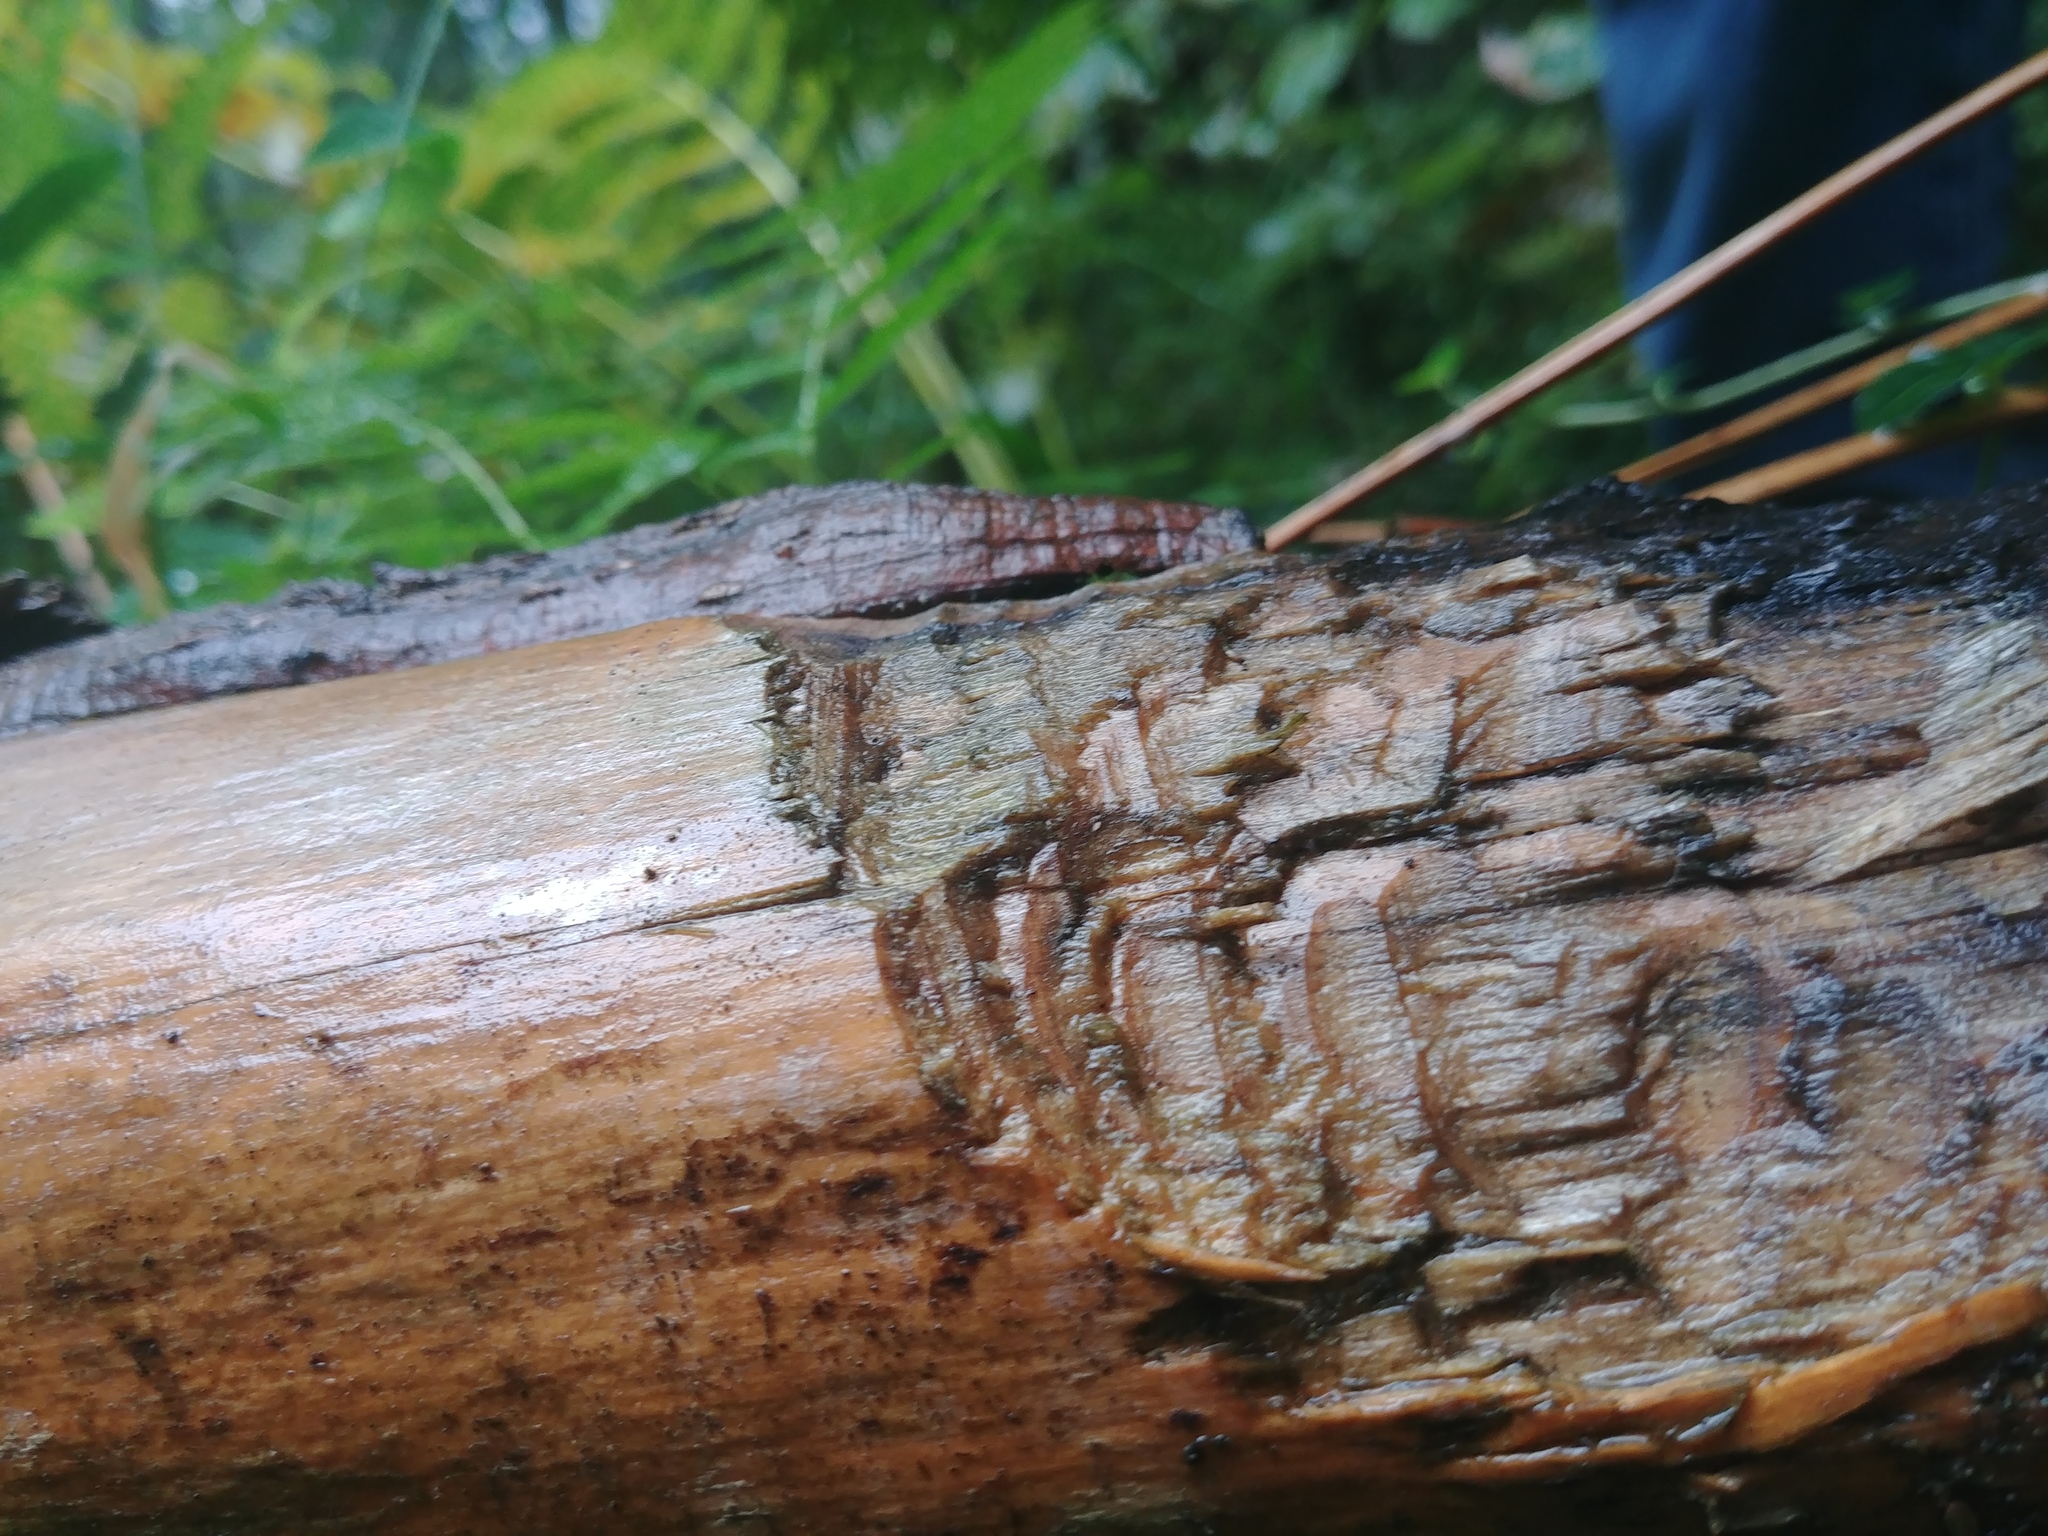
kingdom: Animalia
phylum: Chordata
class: Mammalia
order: Rodentia
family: Castoridae
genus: Castor
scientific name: Castor canadensis
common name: American beaver
